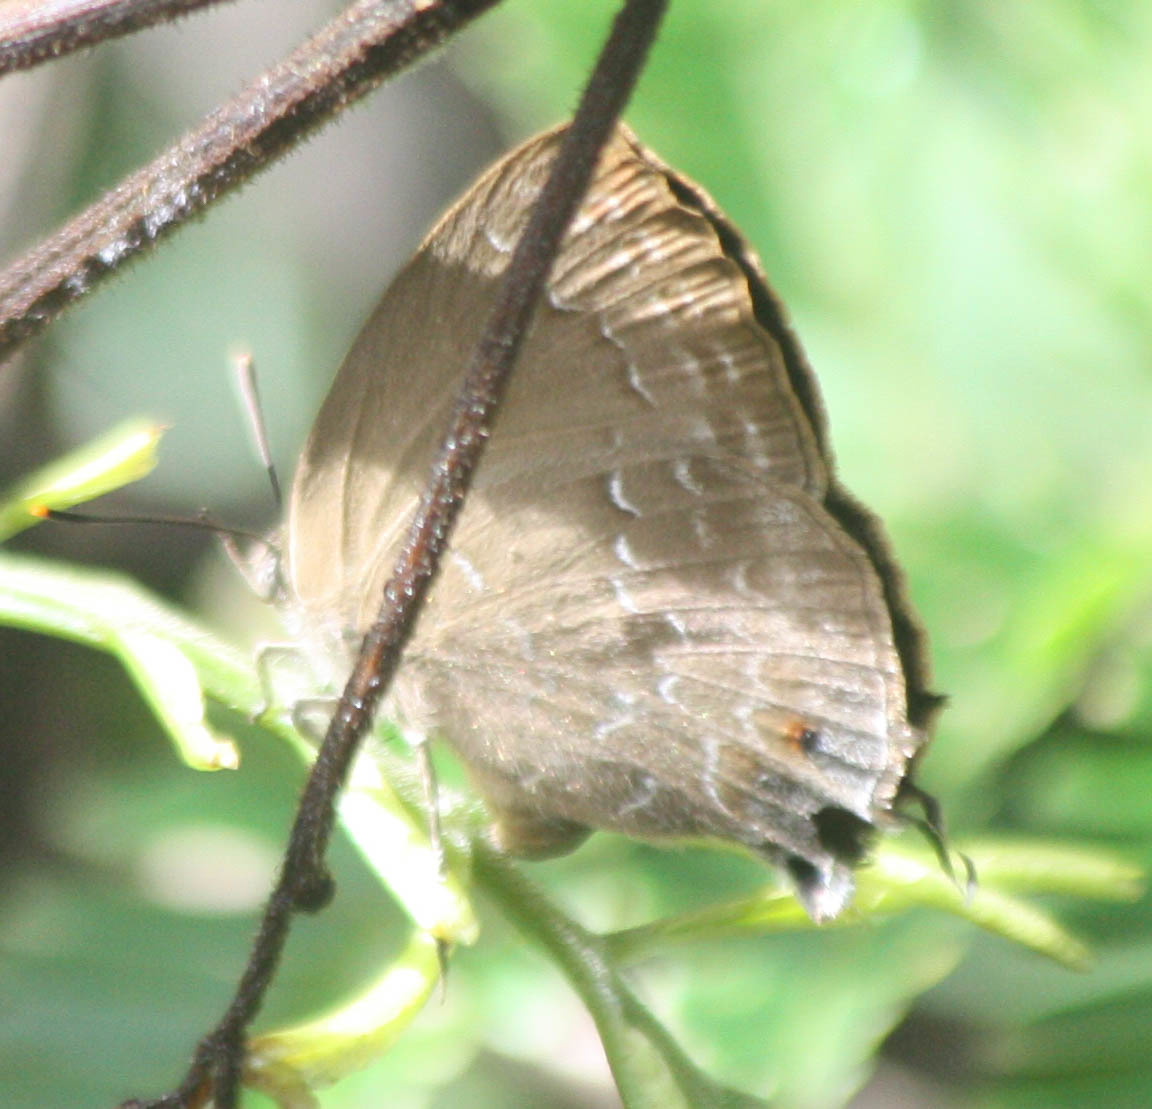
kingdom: Animalia
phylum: Arthropoda
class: Insecta
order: Lepidoptera
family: Lycaenidae
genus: Zinaspa
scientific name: Zinaspa todara
